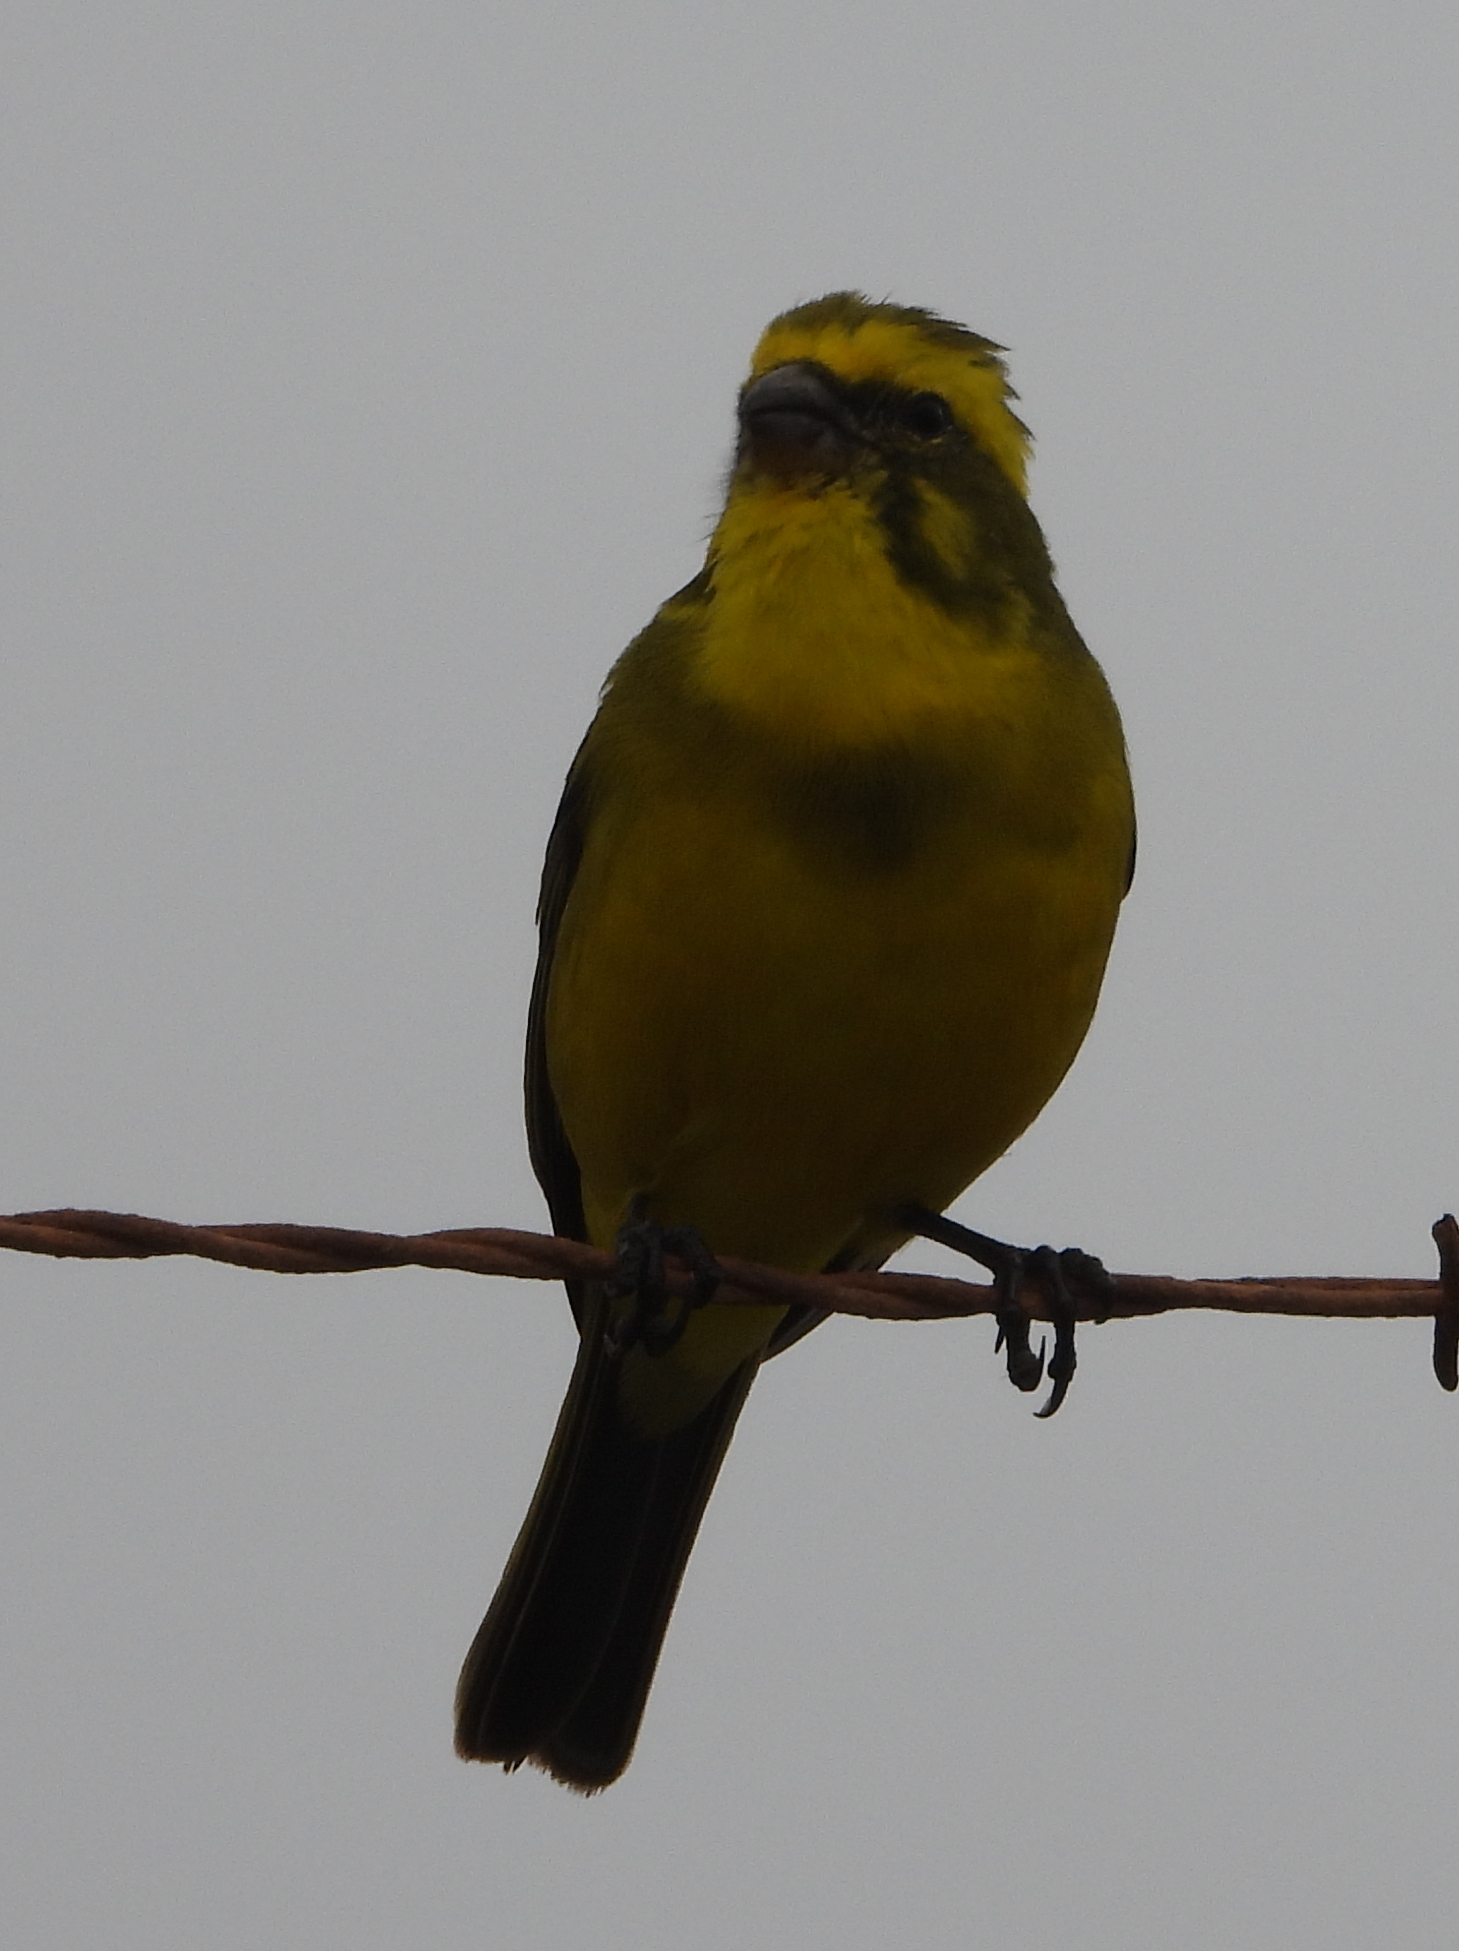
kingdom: Animalia
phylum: Chordata
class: Aves
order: Passeriformes
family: Fringillidae
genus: Crithagra
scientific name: Crithagra flaviventris
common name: Yellow canary
